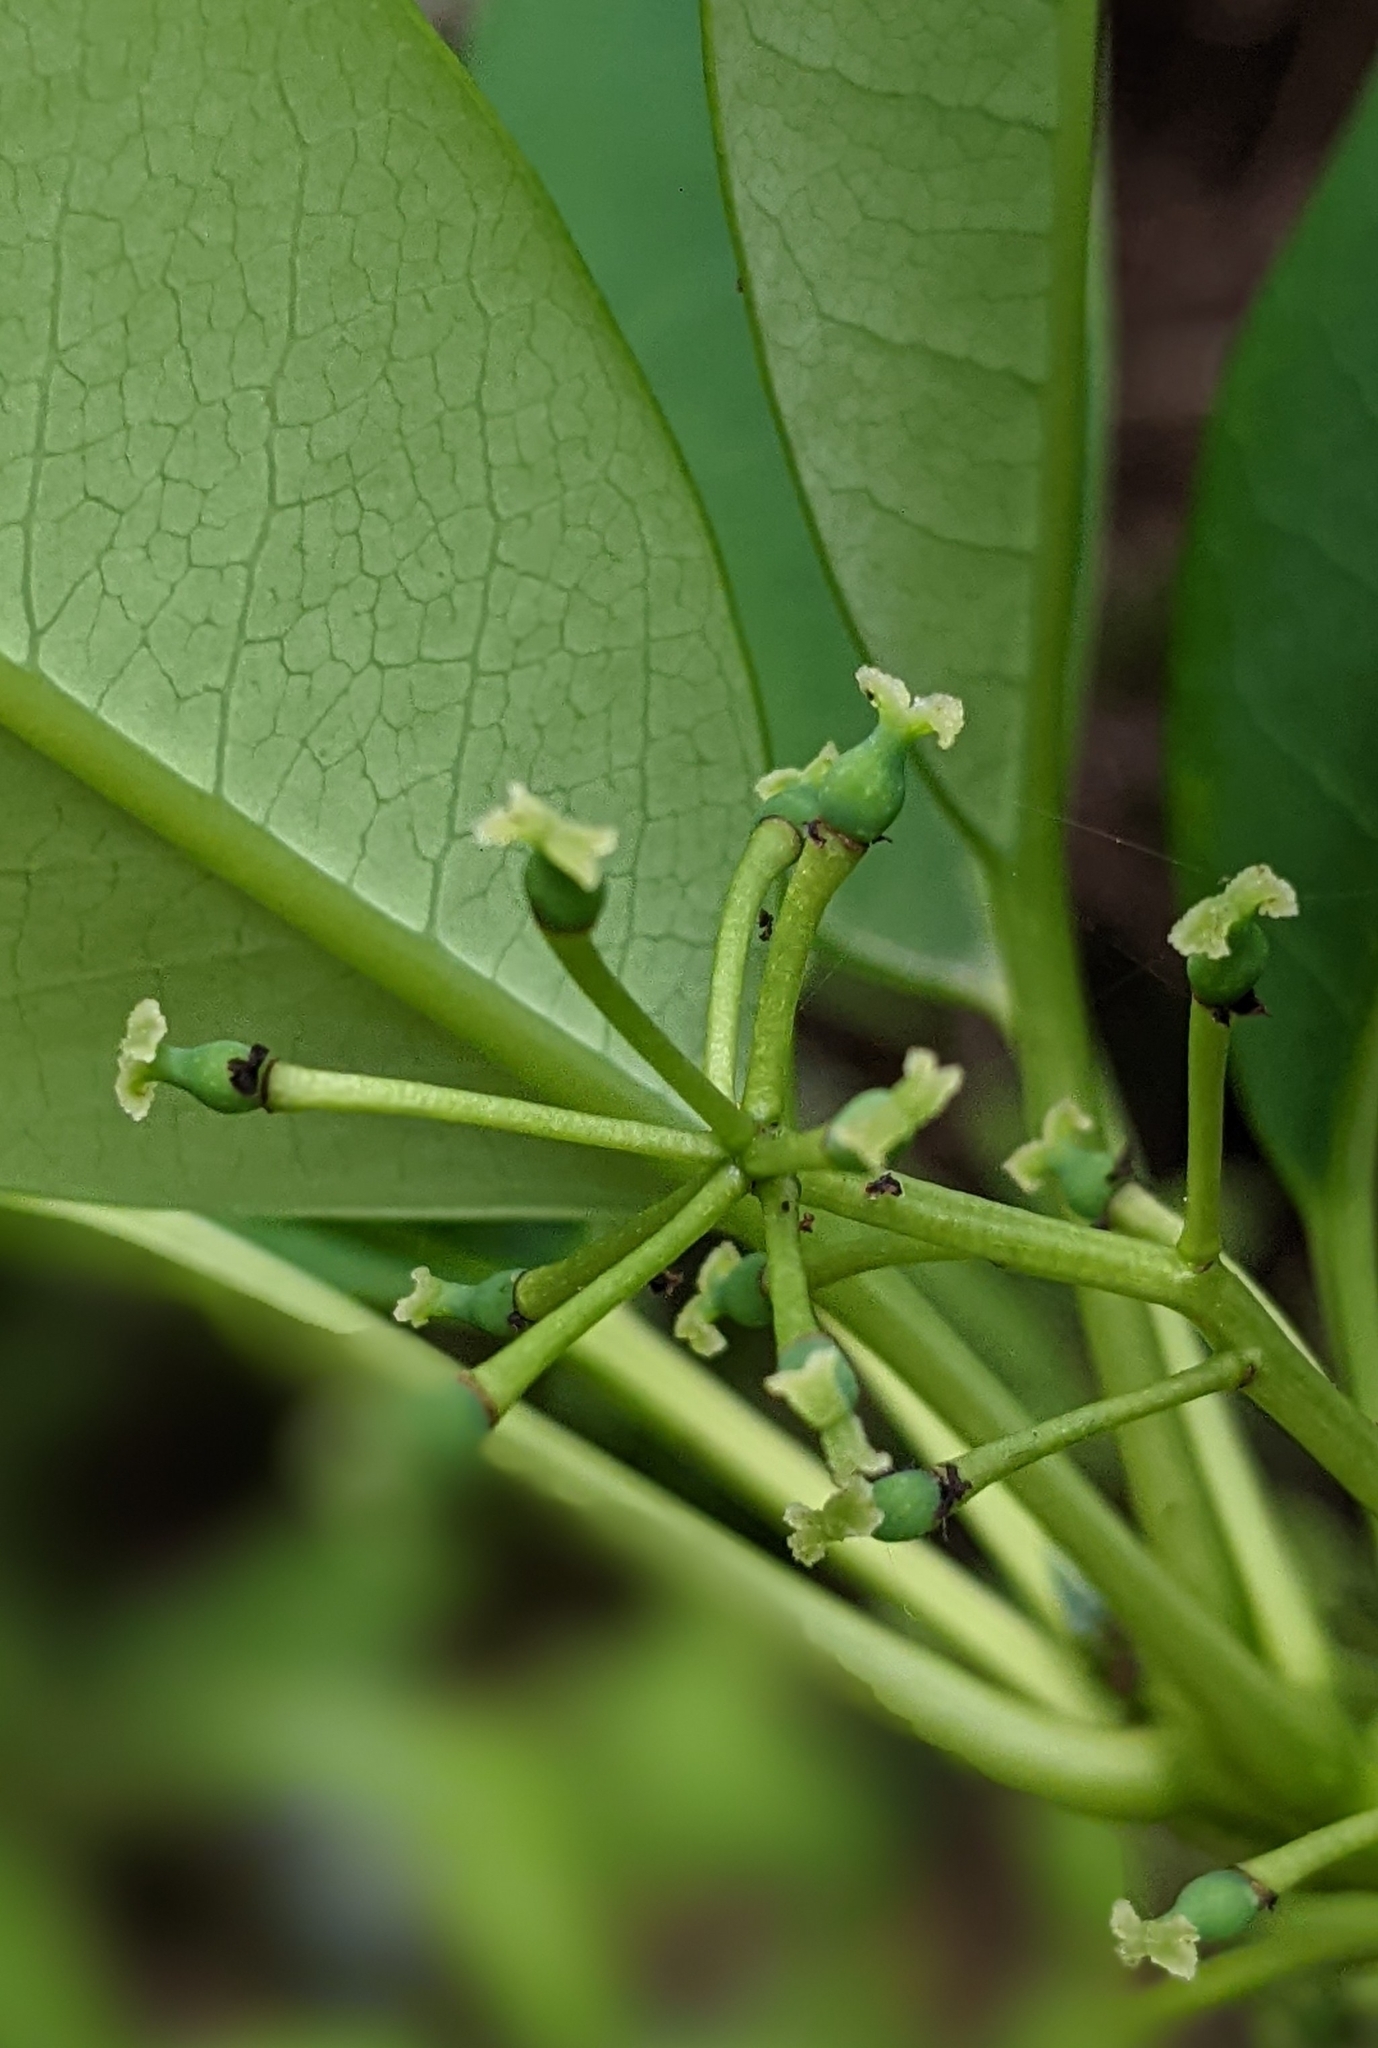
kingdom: Plantae
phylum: Tracheophyta
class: Magnoliopsida
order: Saxifragales
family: Daphniphyllaceae
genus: Daphniphyllum
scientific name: Daphniphyllum pentandrum
